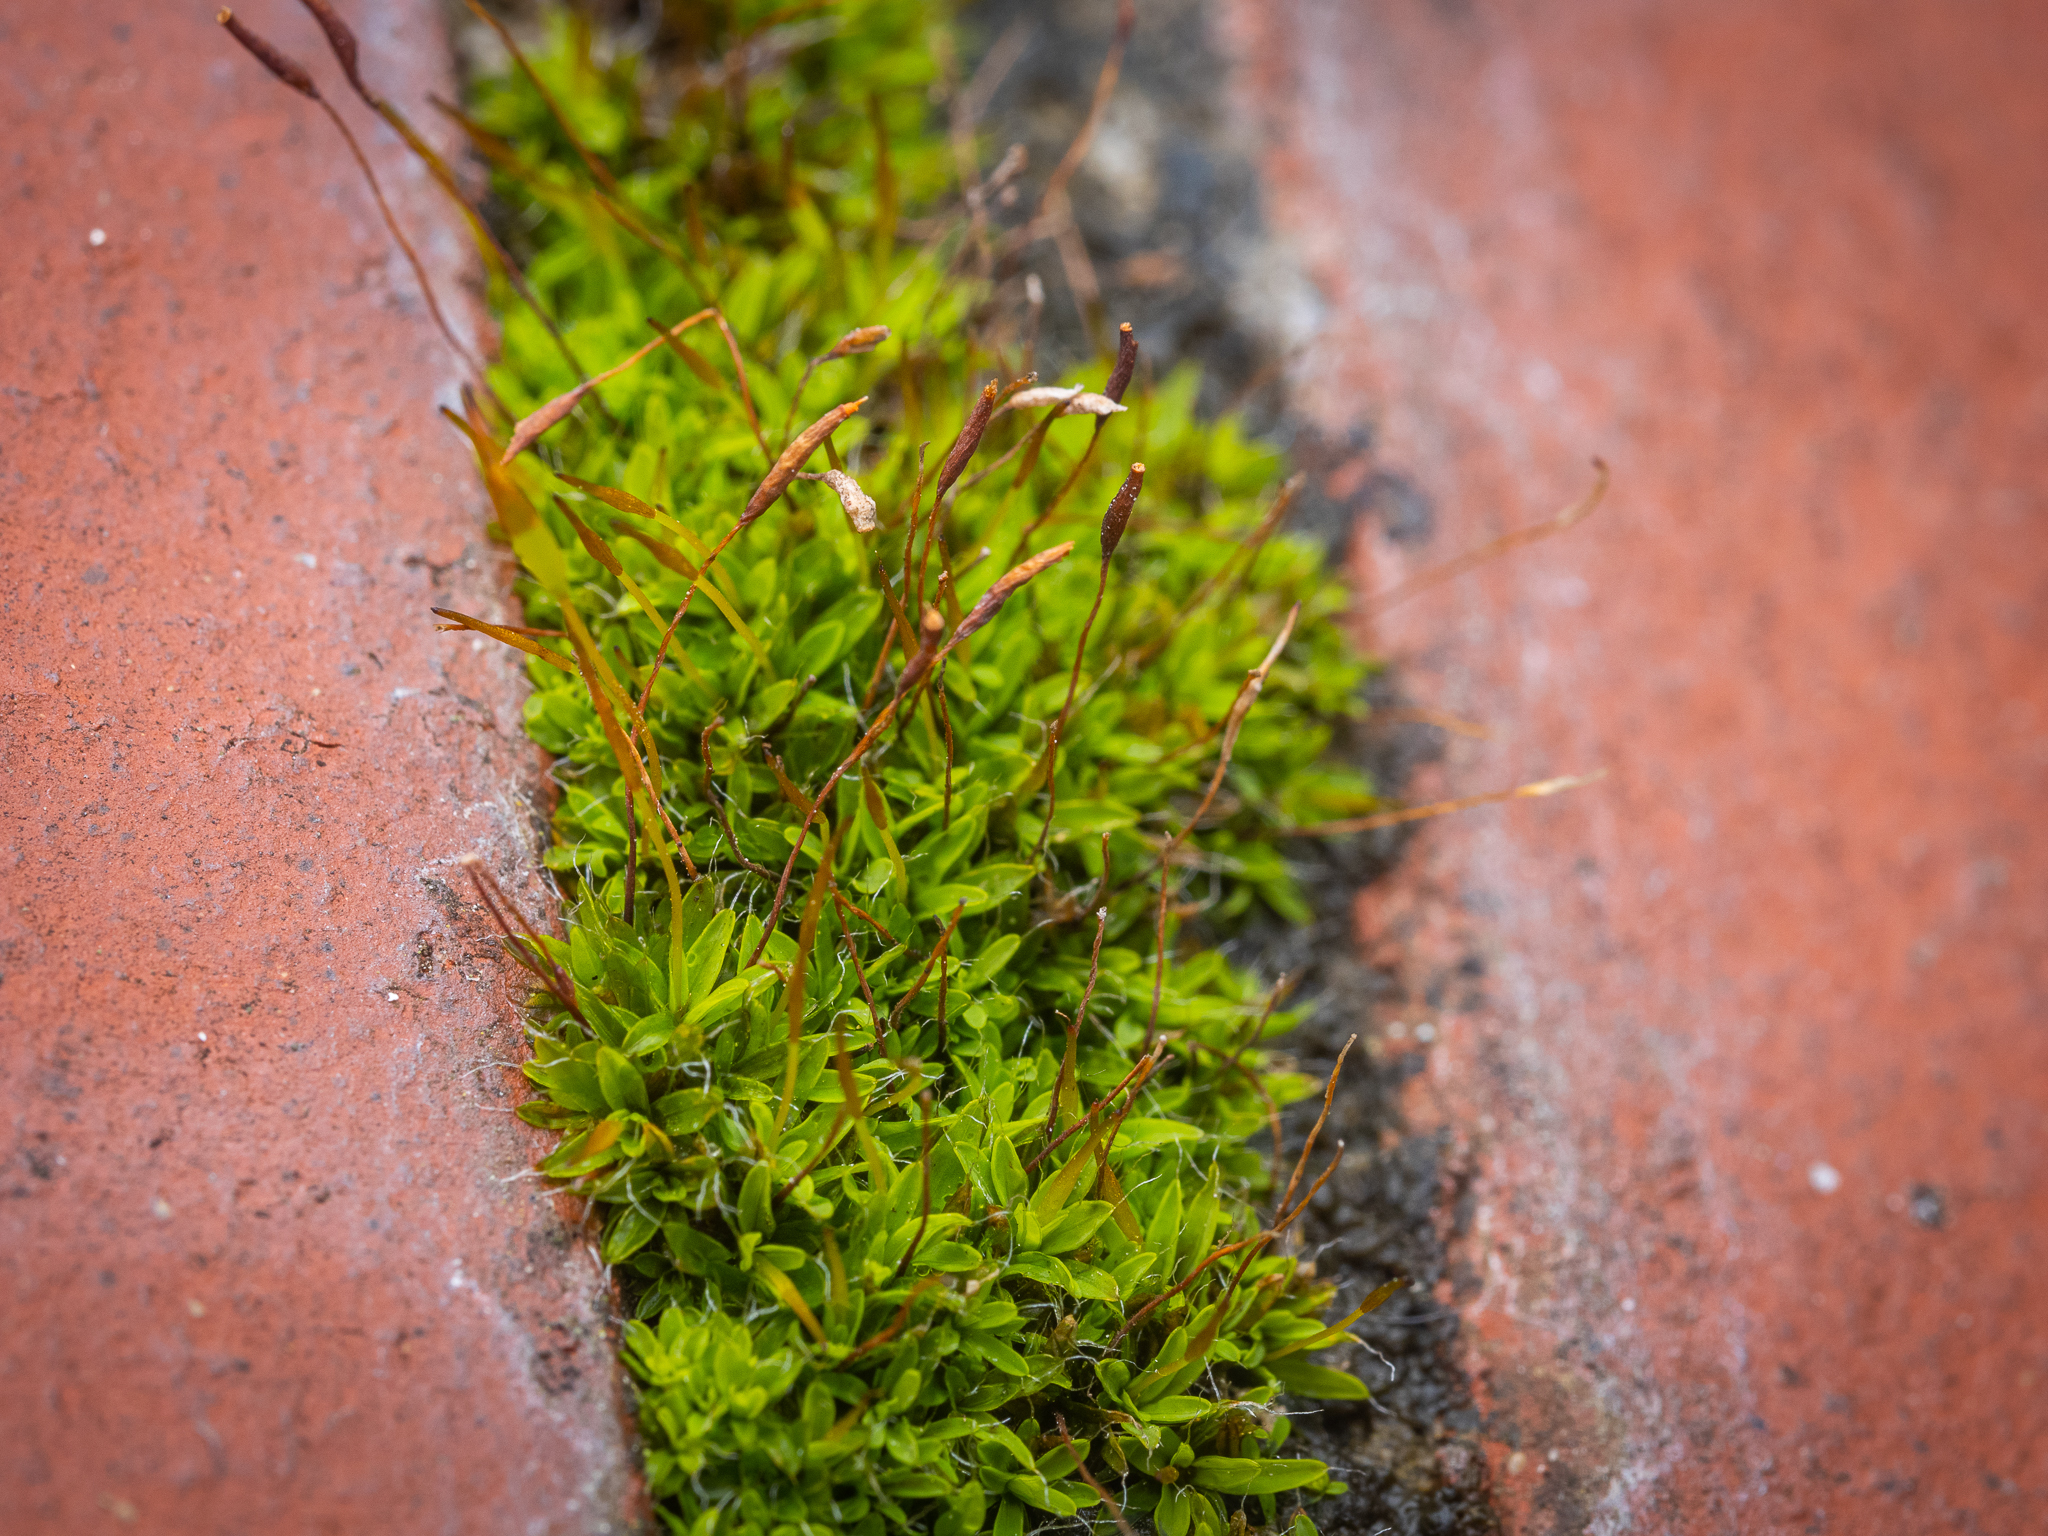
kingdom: Plantae
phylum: Bryophyta
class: Bryopsida
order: Pottiales
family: Pottiaceae
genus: Tortula
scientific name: Tortula muralis
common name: Wall screw-moss
